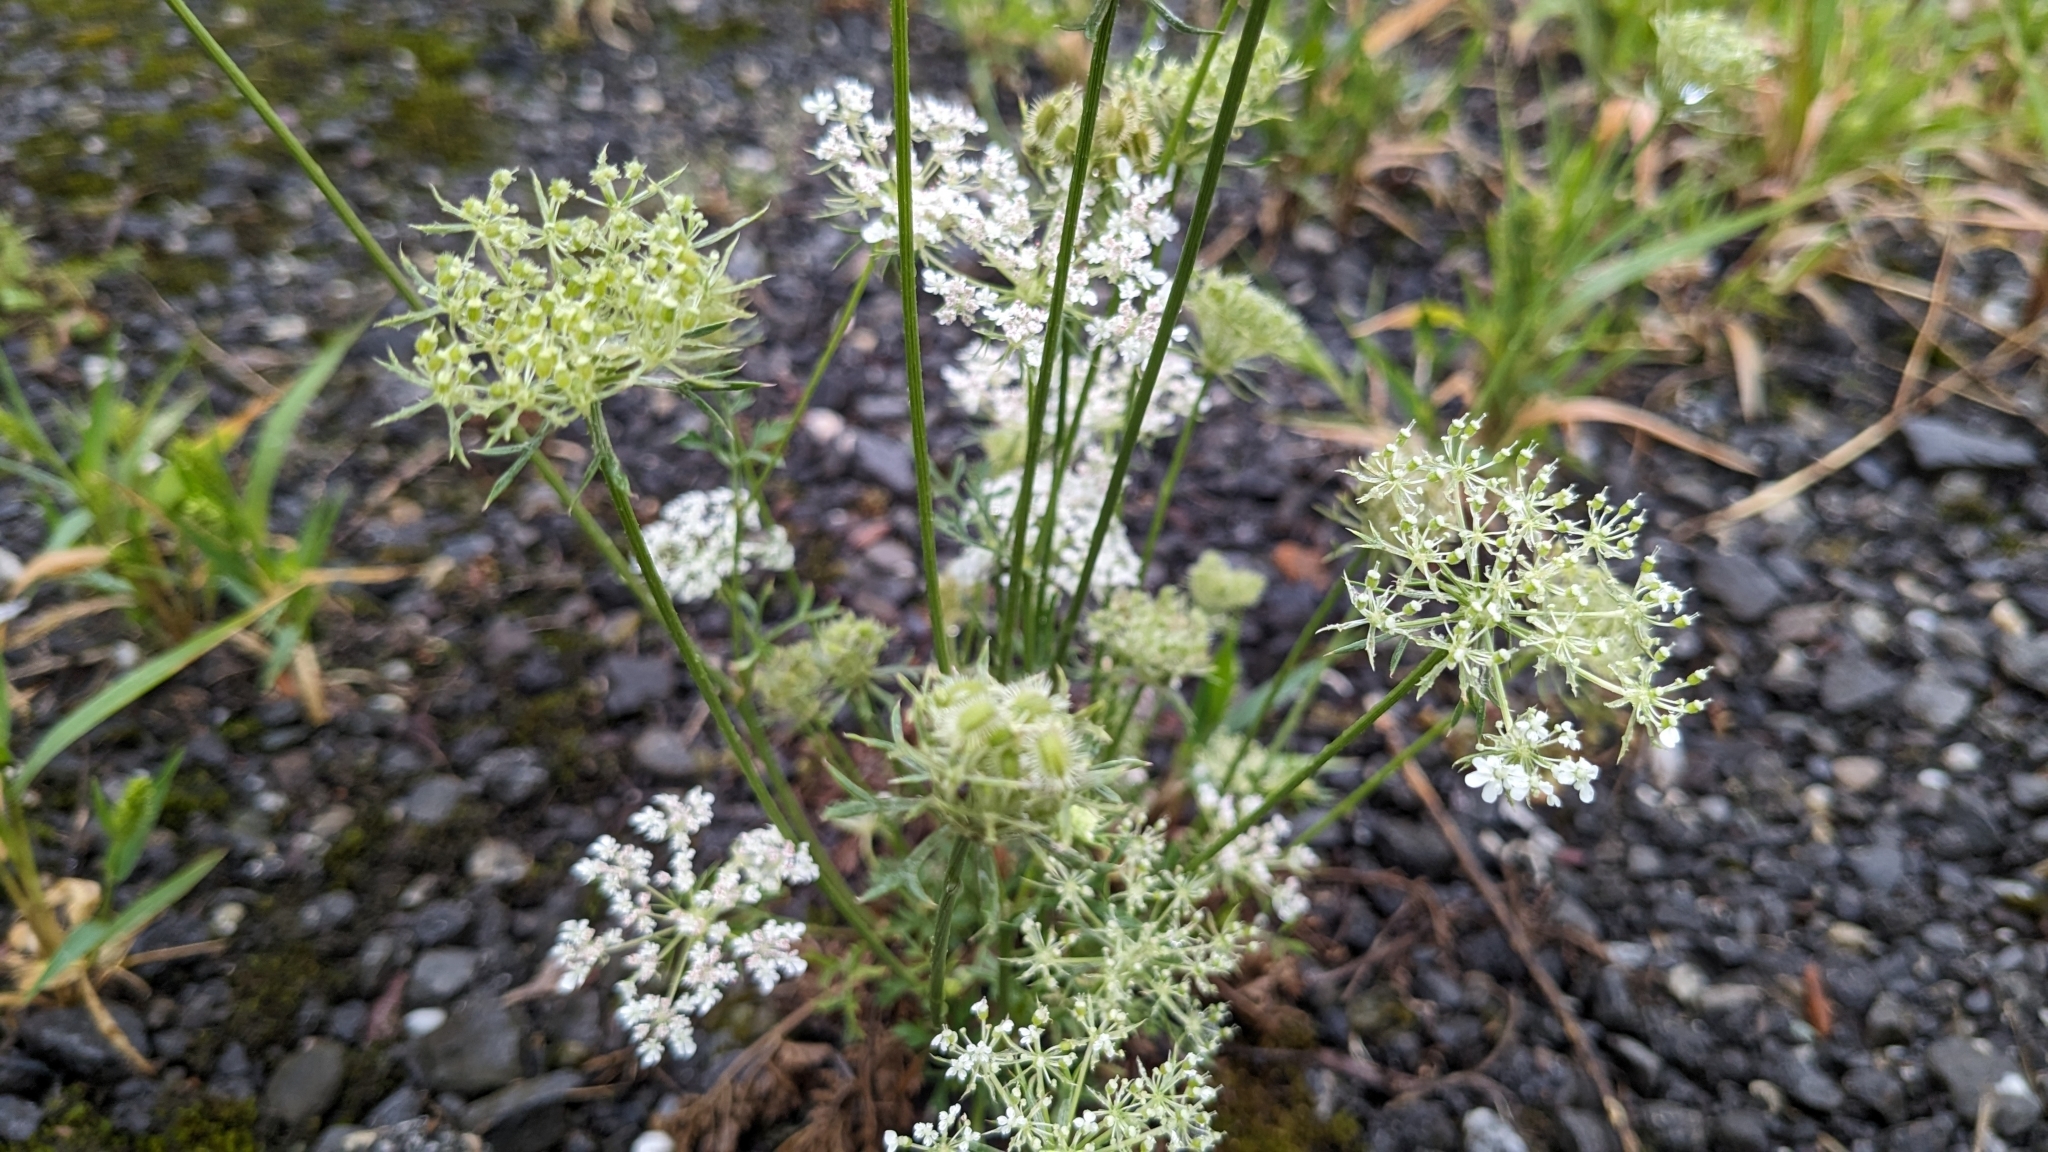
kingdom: Plantae
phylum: Tracheophyta
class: Magnoliopsida
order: Apiales
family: Apiaceae
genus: Daucus
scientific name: Daucus carota
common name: Wild carrot
